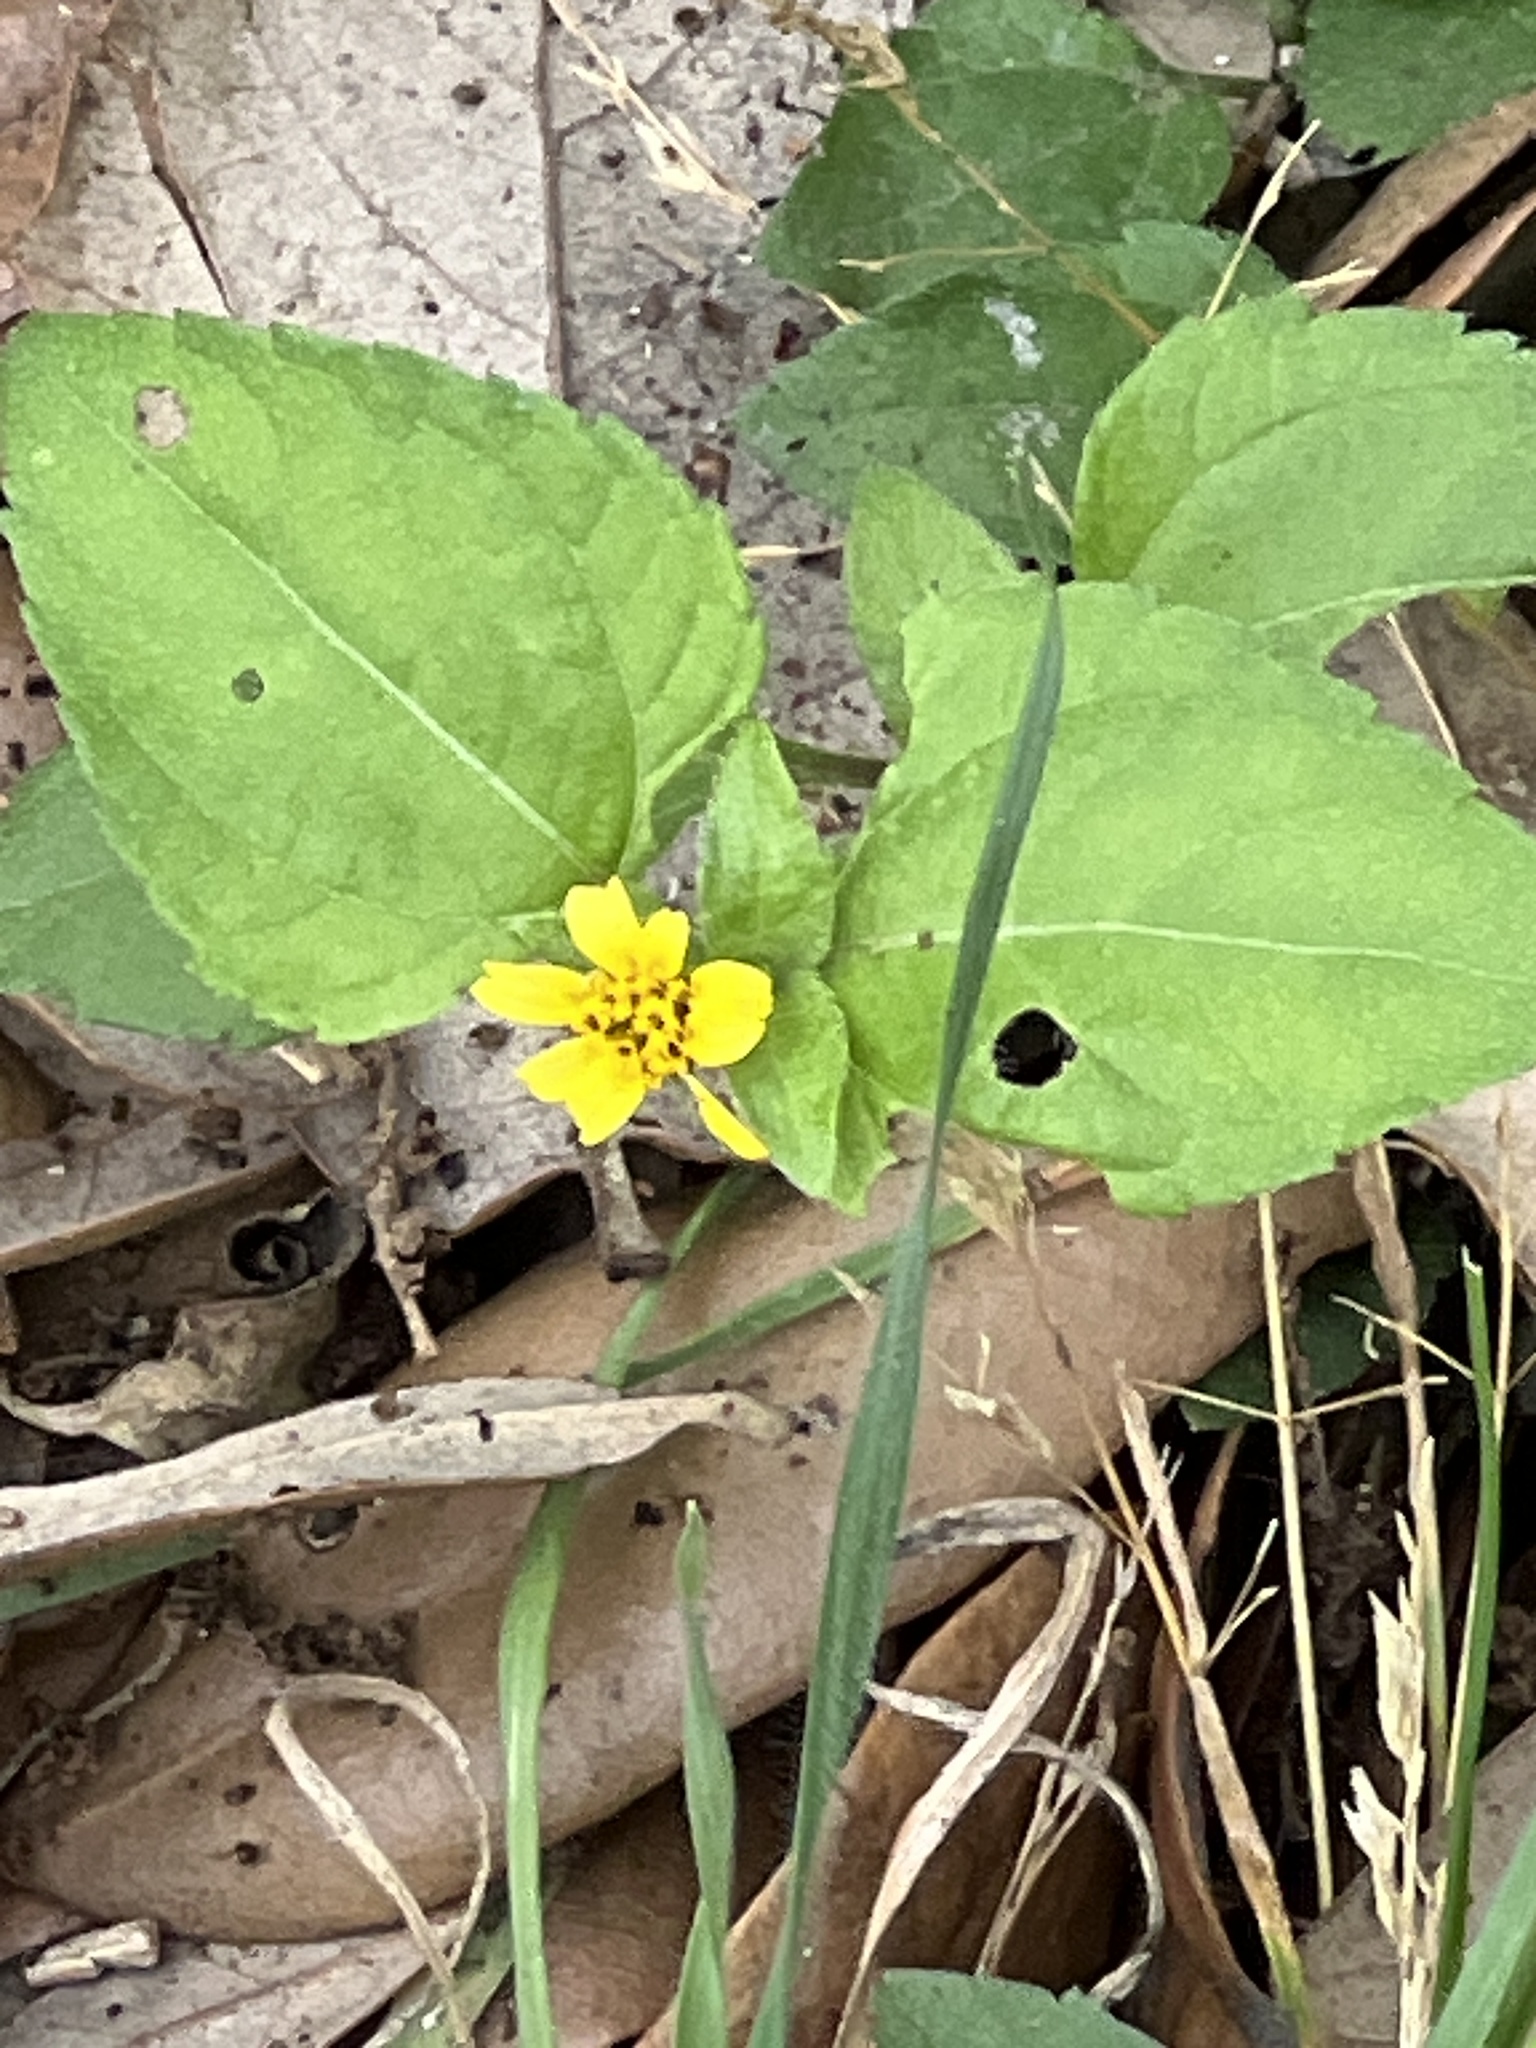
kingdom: Plantae
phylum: Tracheophyta
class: Magnoliopsida
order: Asterales
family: Asteraceae
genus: Calyptocarpus
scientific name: Calyptocarpus vialis
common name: Straggler daisy
